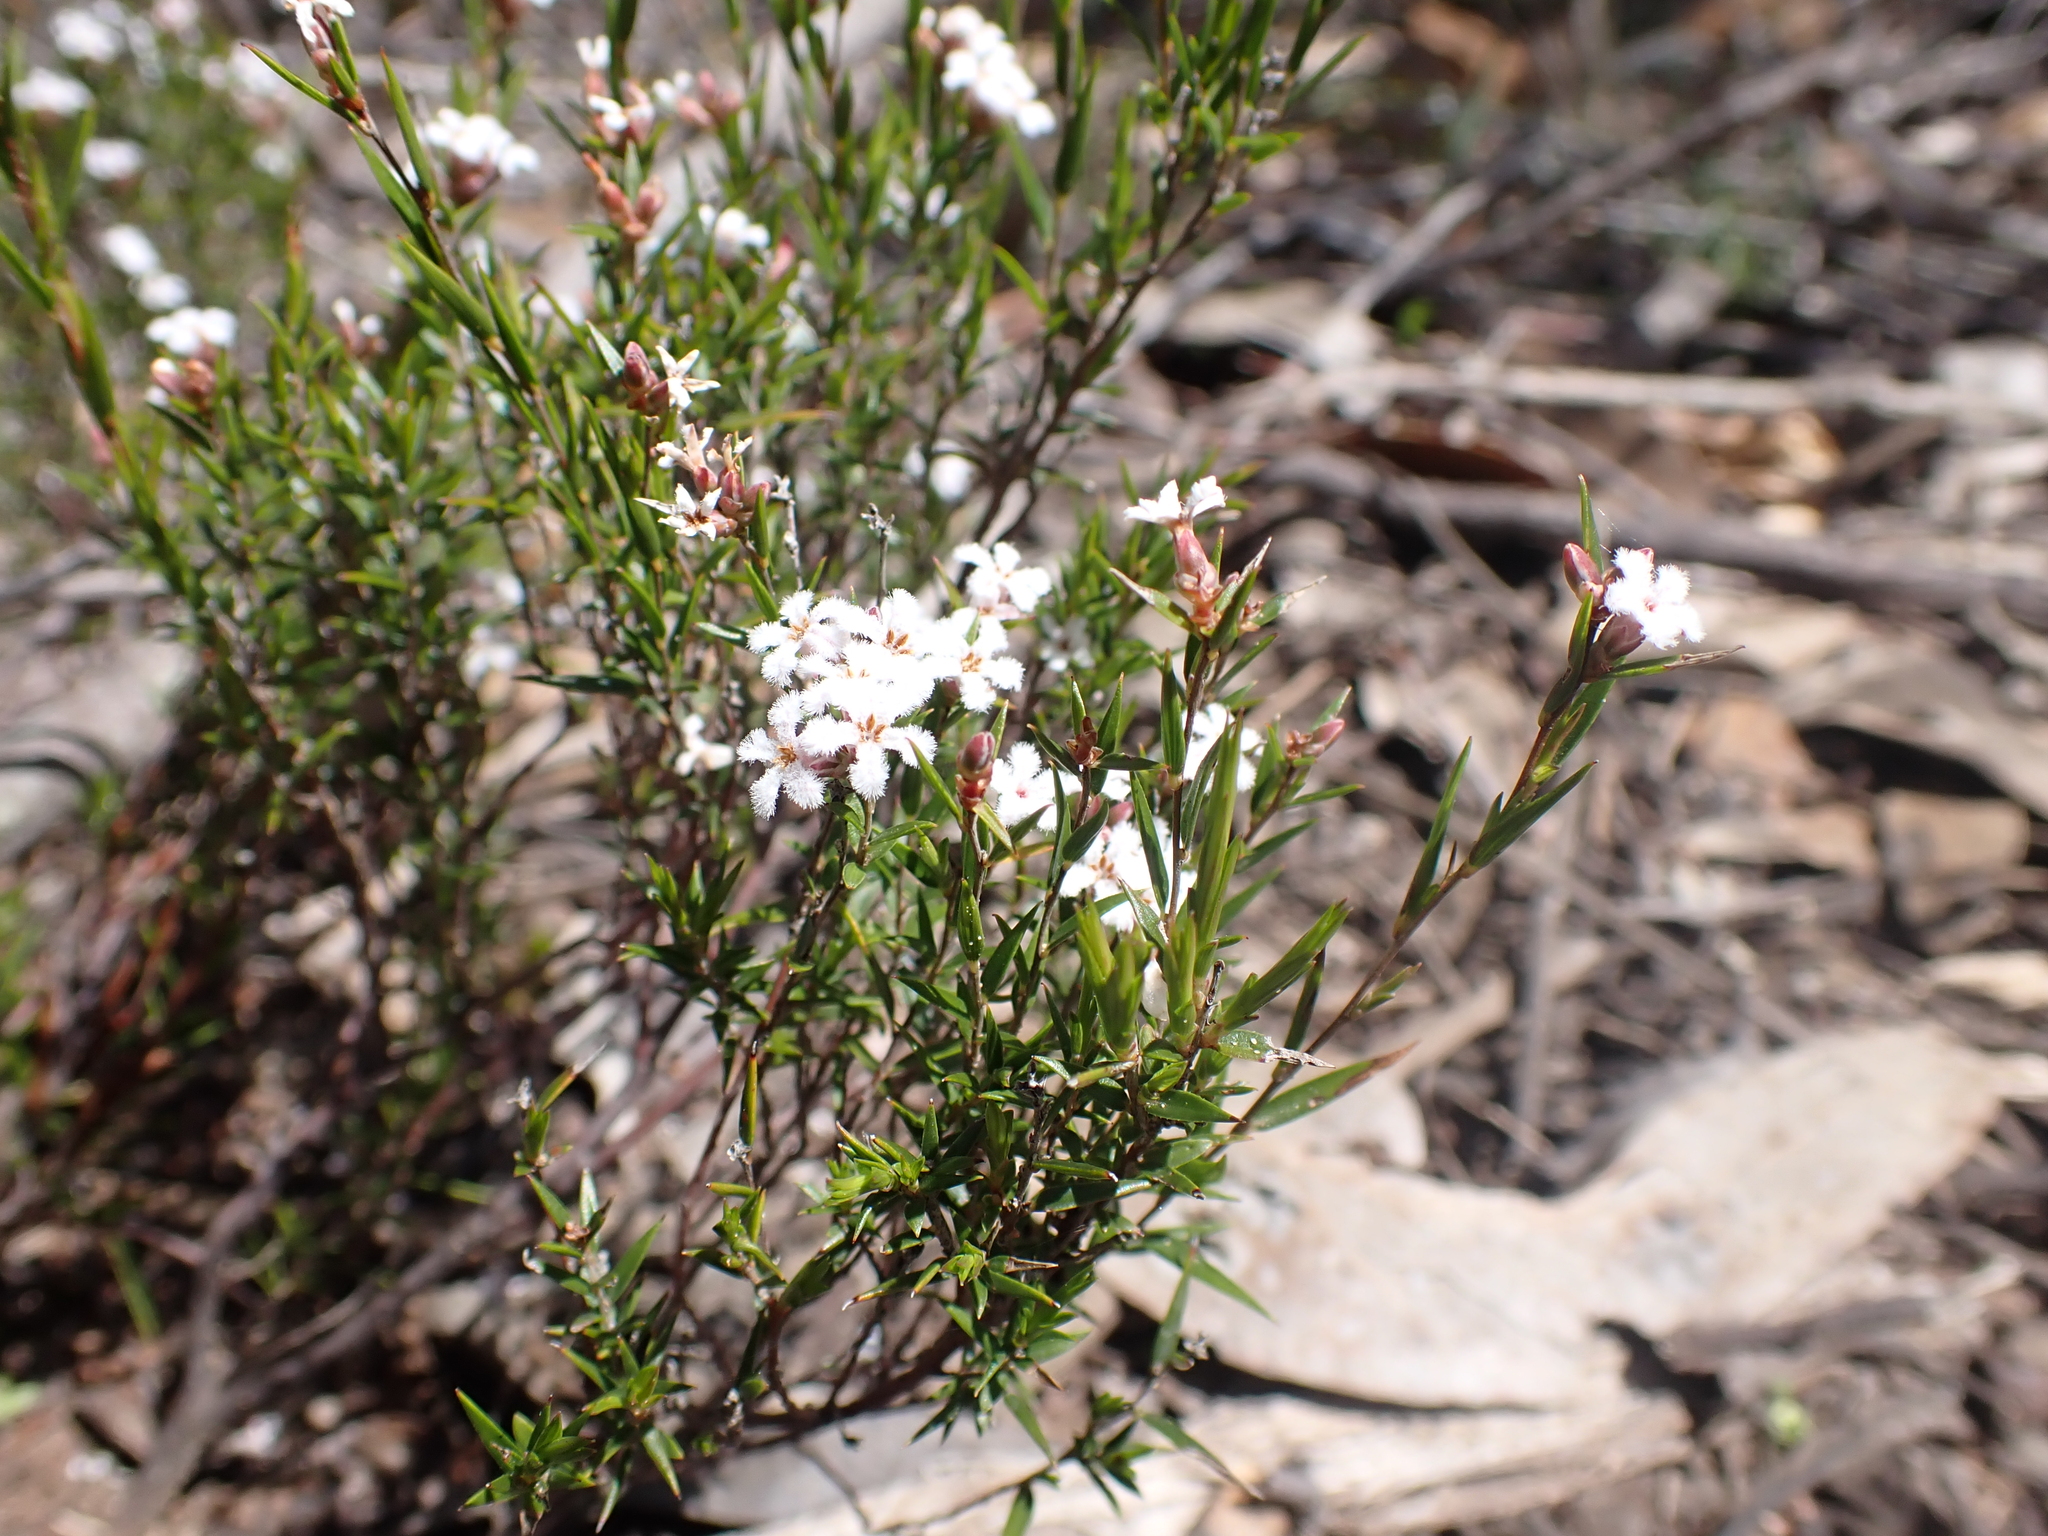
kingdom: Plantae
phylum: Tracheophyta
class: Magnoliopsida
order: Ericales
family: Ericaceae
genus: Leucopogon
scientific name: Leucopogon virgatus
